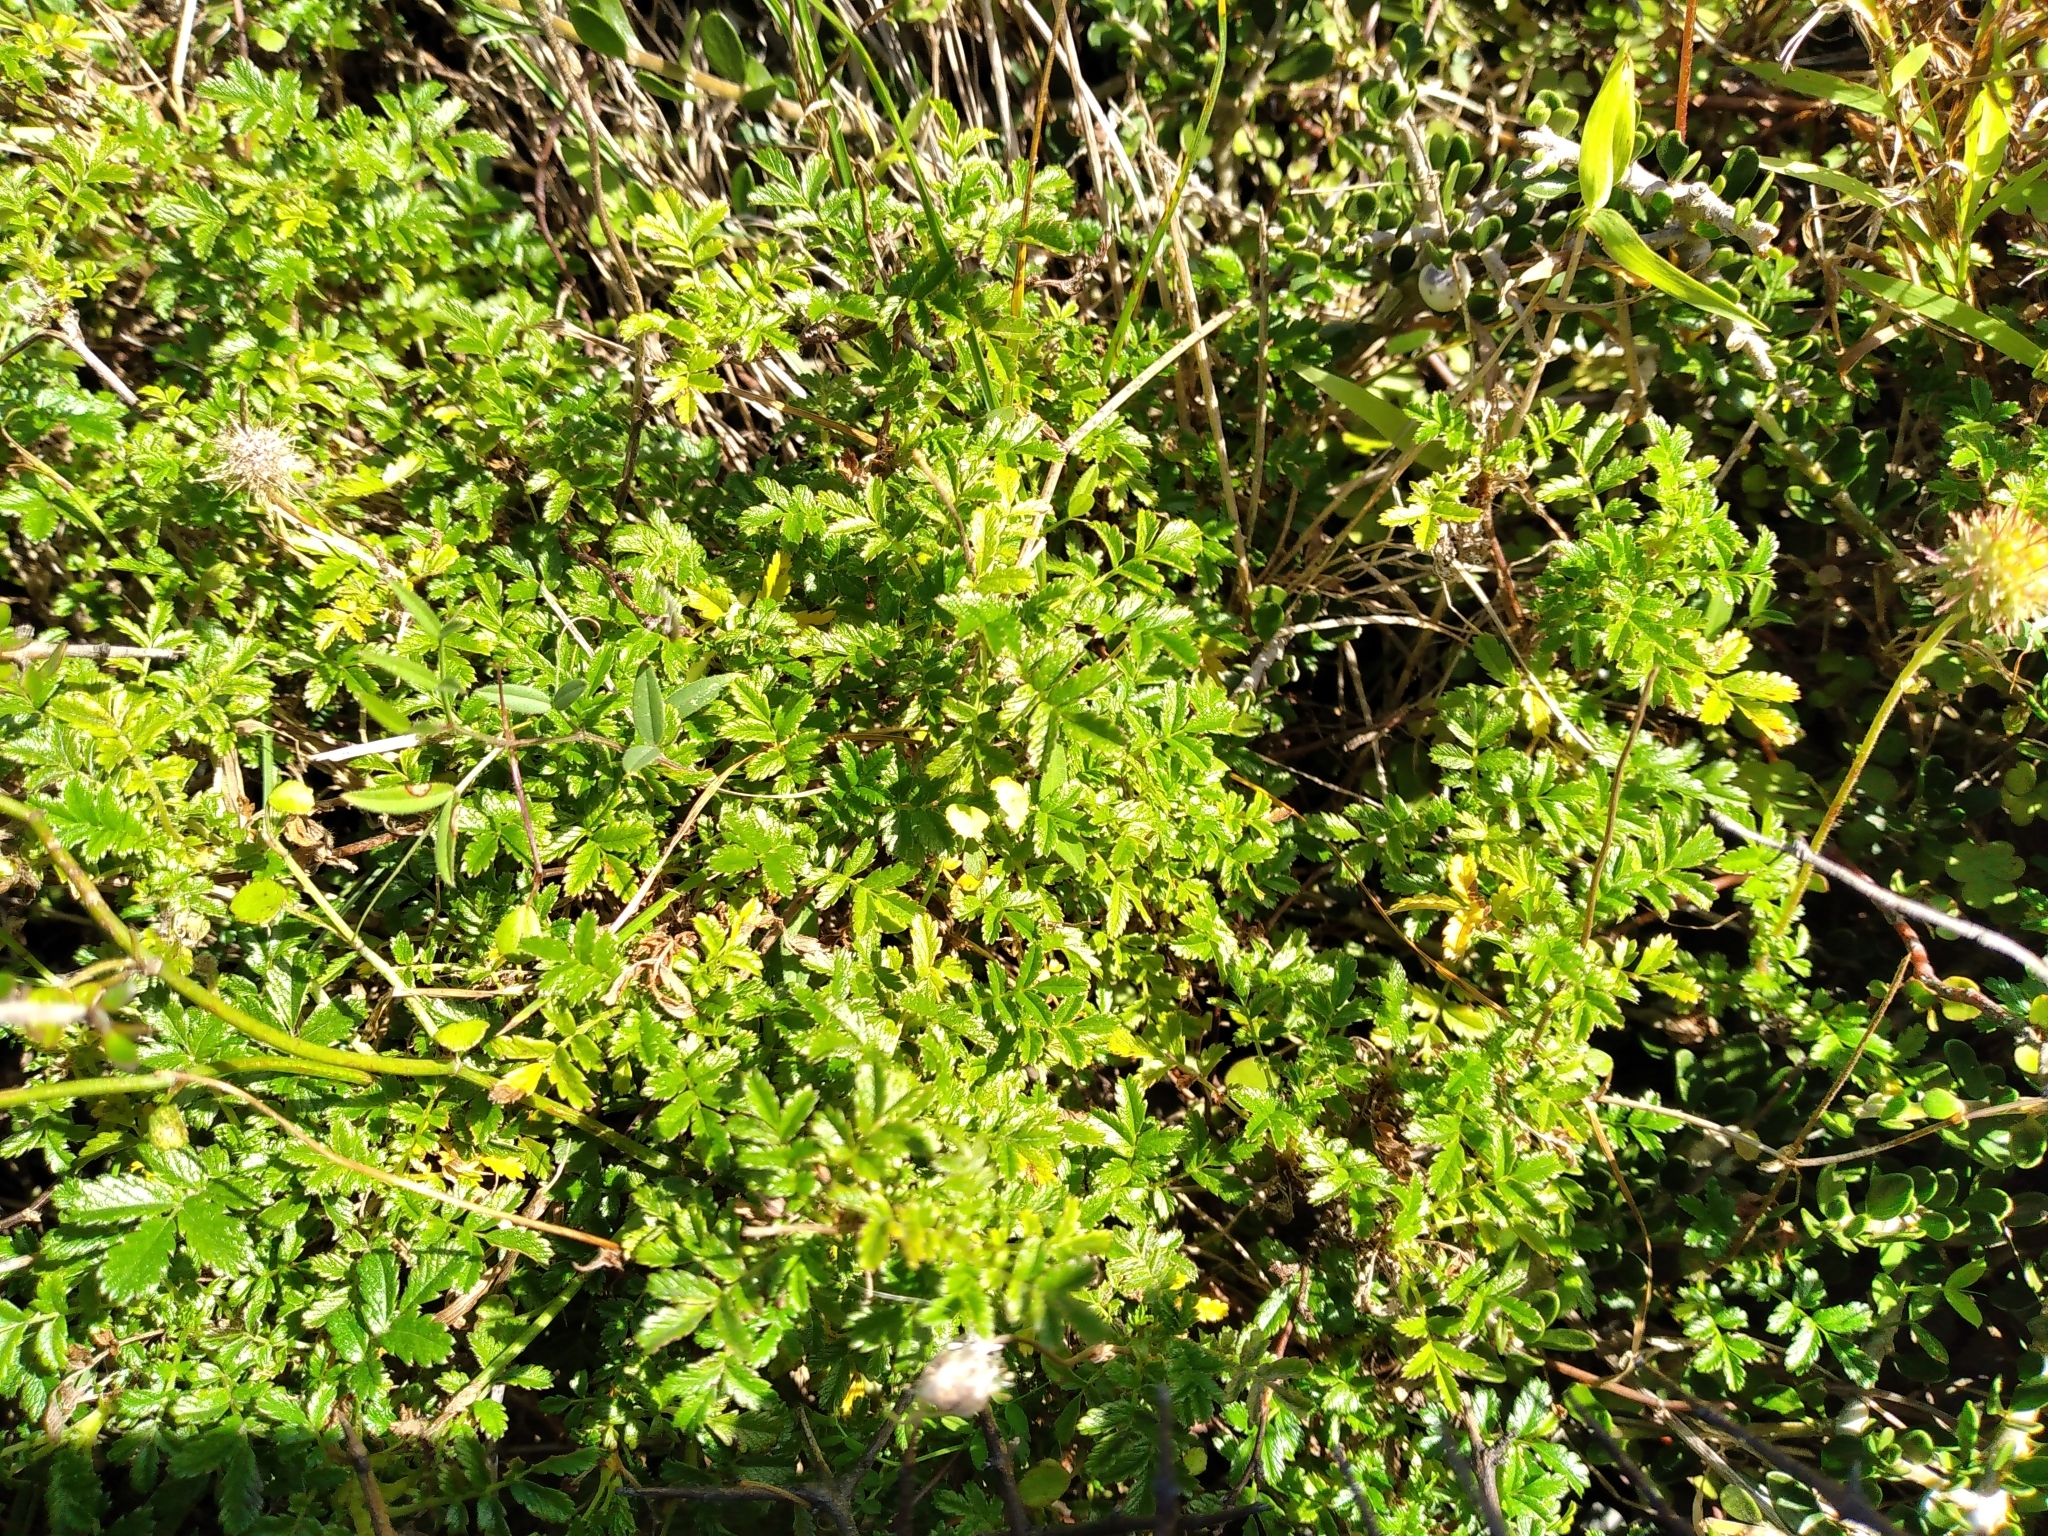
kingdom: Plantae
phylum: Tracheophyta
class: Magnoliopsida
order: Rosales
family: Rosaceae
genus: Acaena
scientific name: Acaena novae-zelandiae
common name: Pirri-pirri-bur
